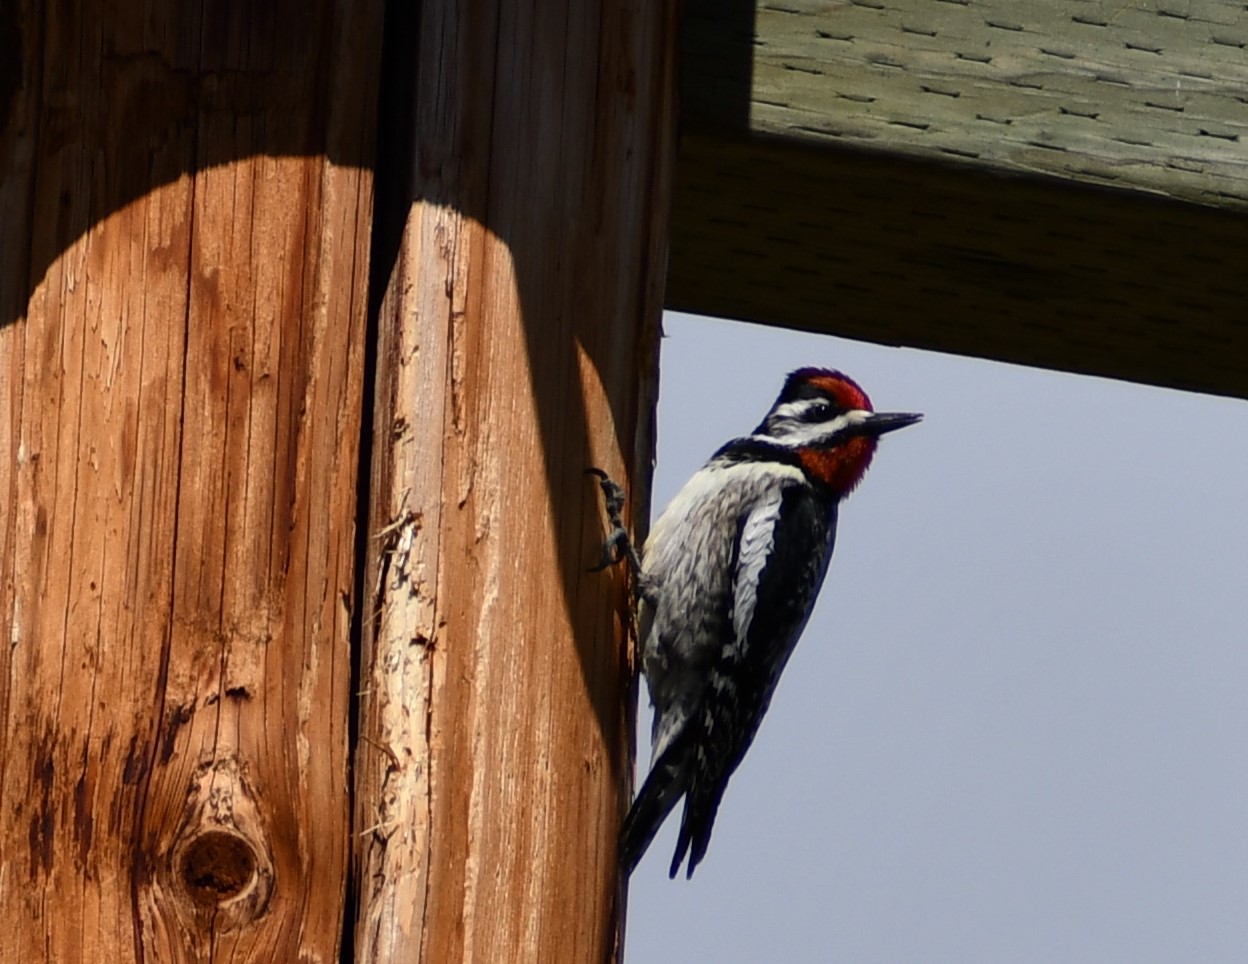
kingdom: Animalia
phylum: Chordata
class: Aves
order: Piciformes
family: Picidae
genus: Sphyrapicus
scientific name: Sphyrapicus varius
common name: Yellow-bellied sapsucker
